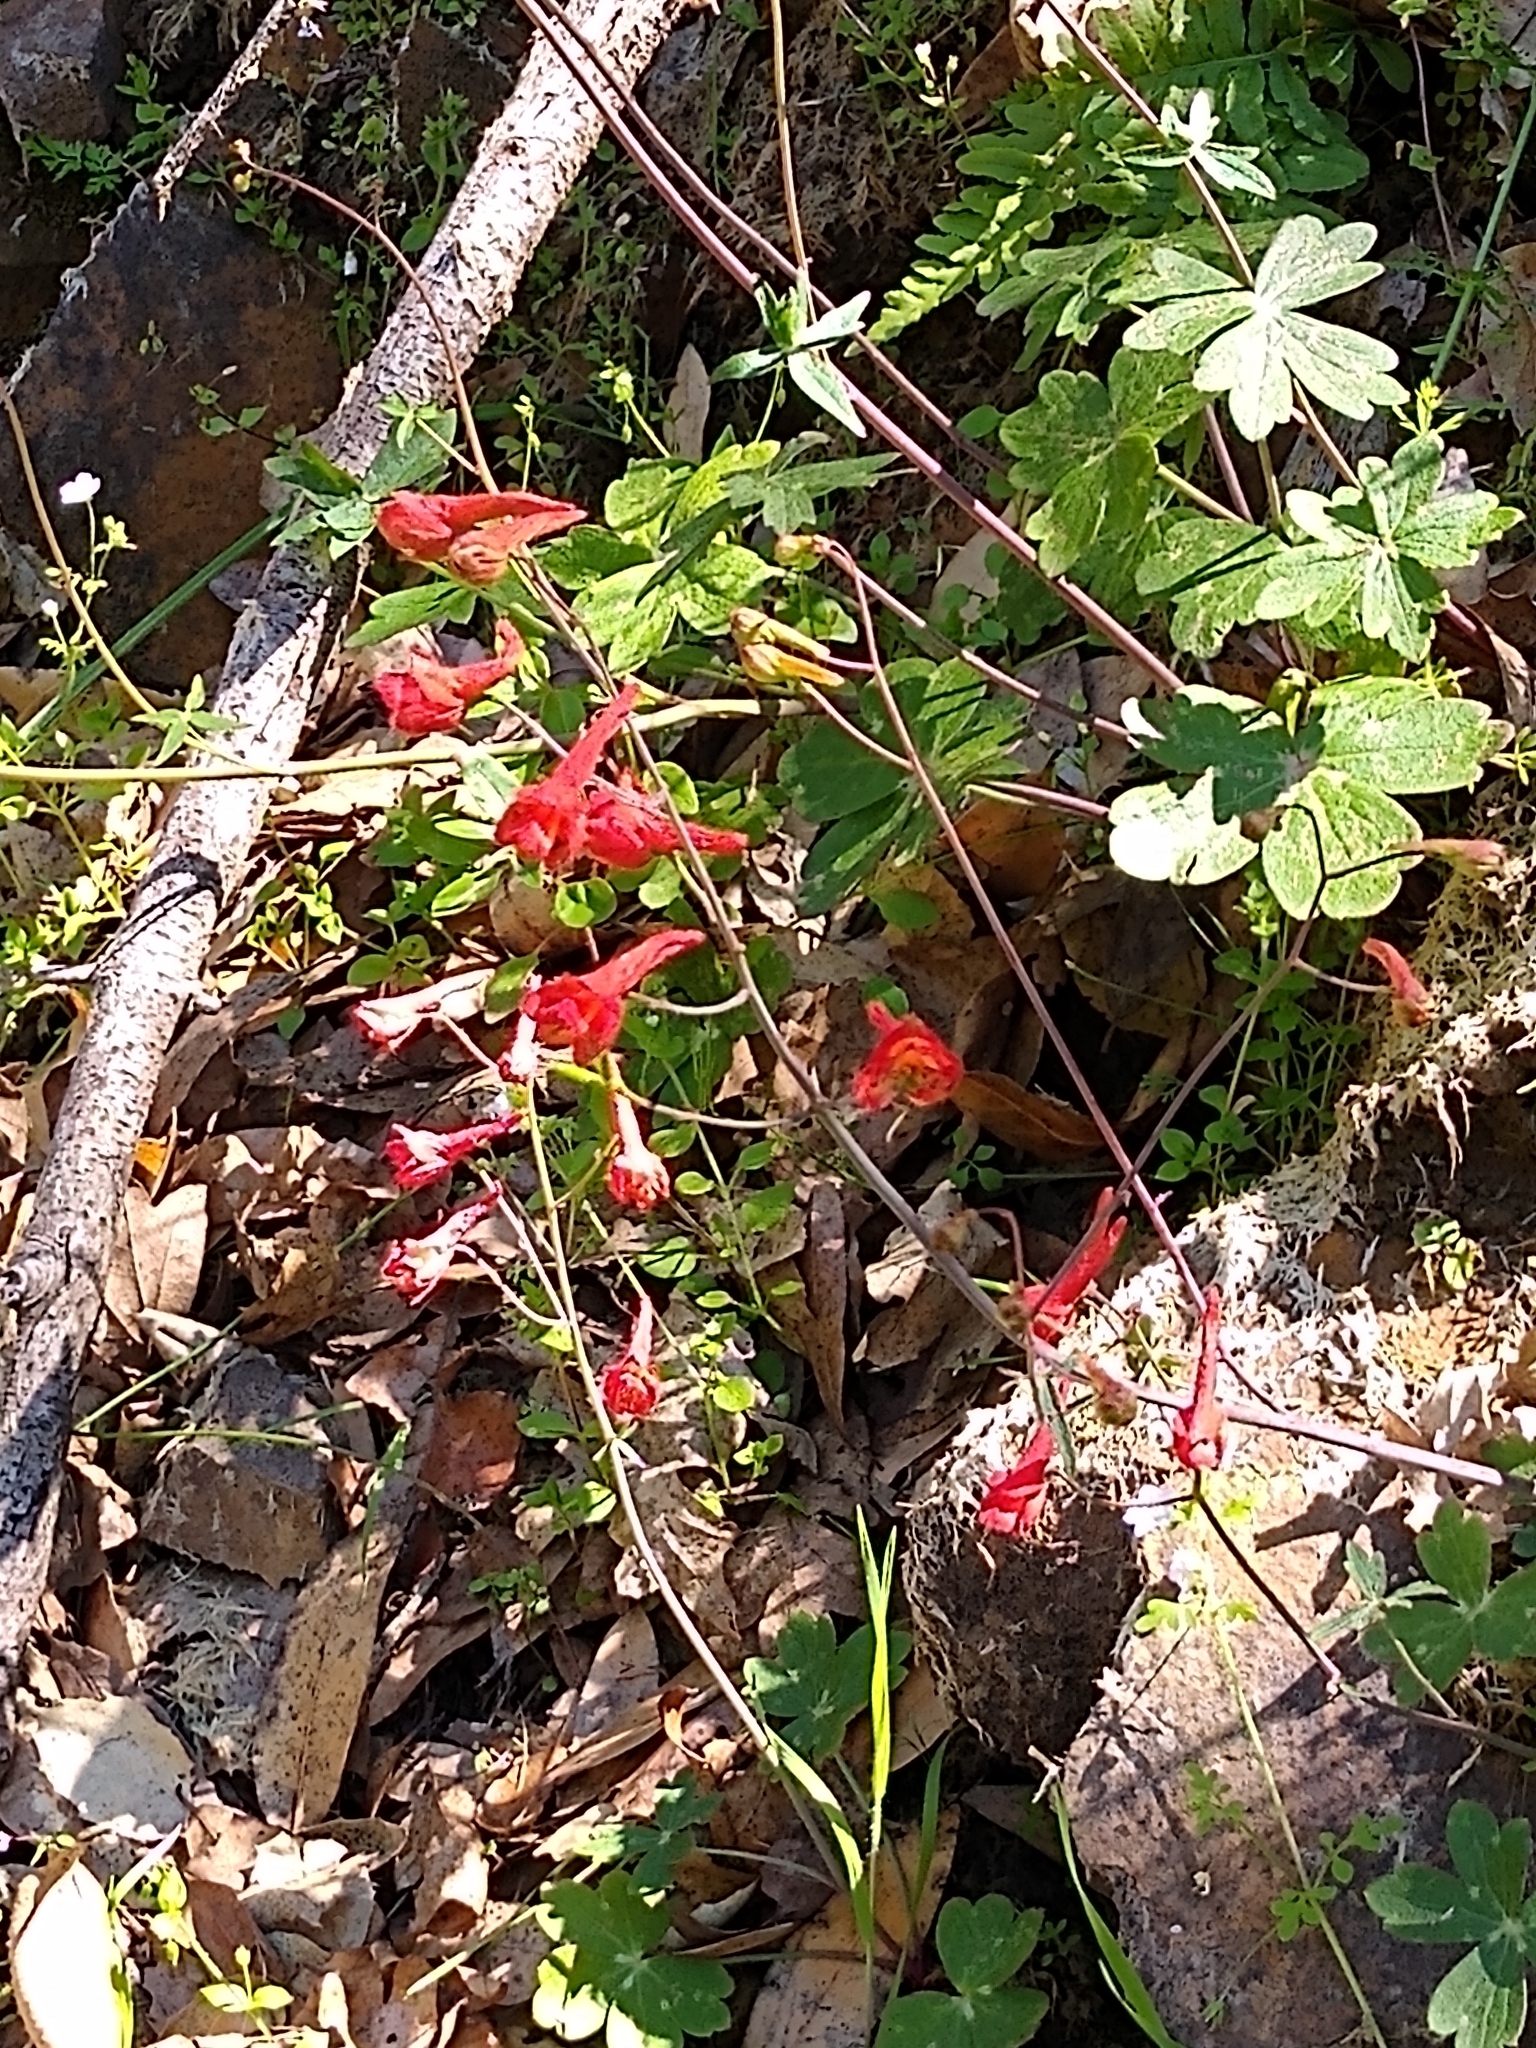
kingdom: Plantae
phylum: Tracheophyta
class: Magnoliopsida
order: Ranunculales
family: Ranunculaceae
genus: Delphinium
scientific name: Delphinium nudicaule
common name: Red larkspur
